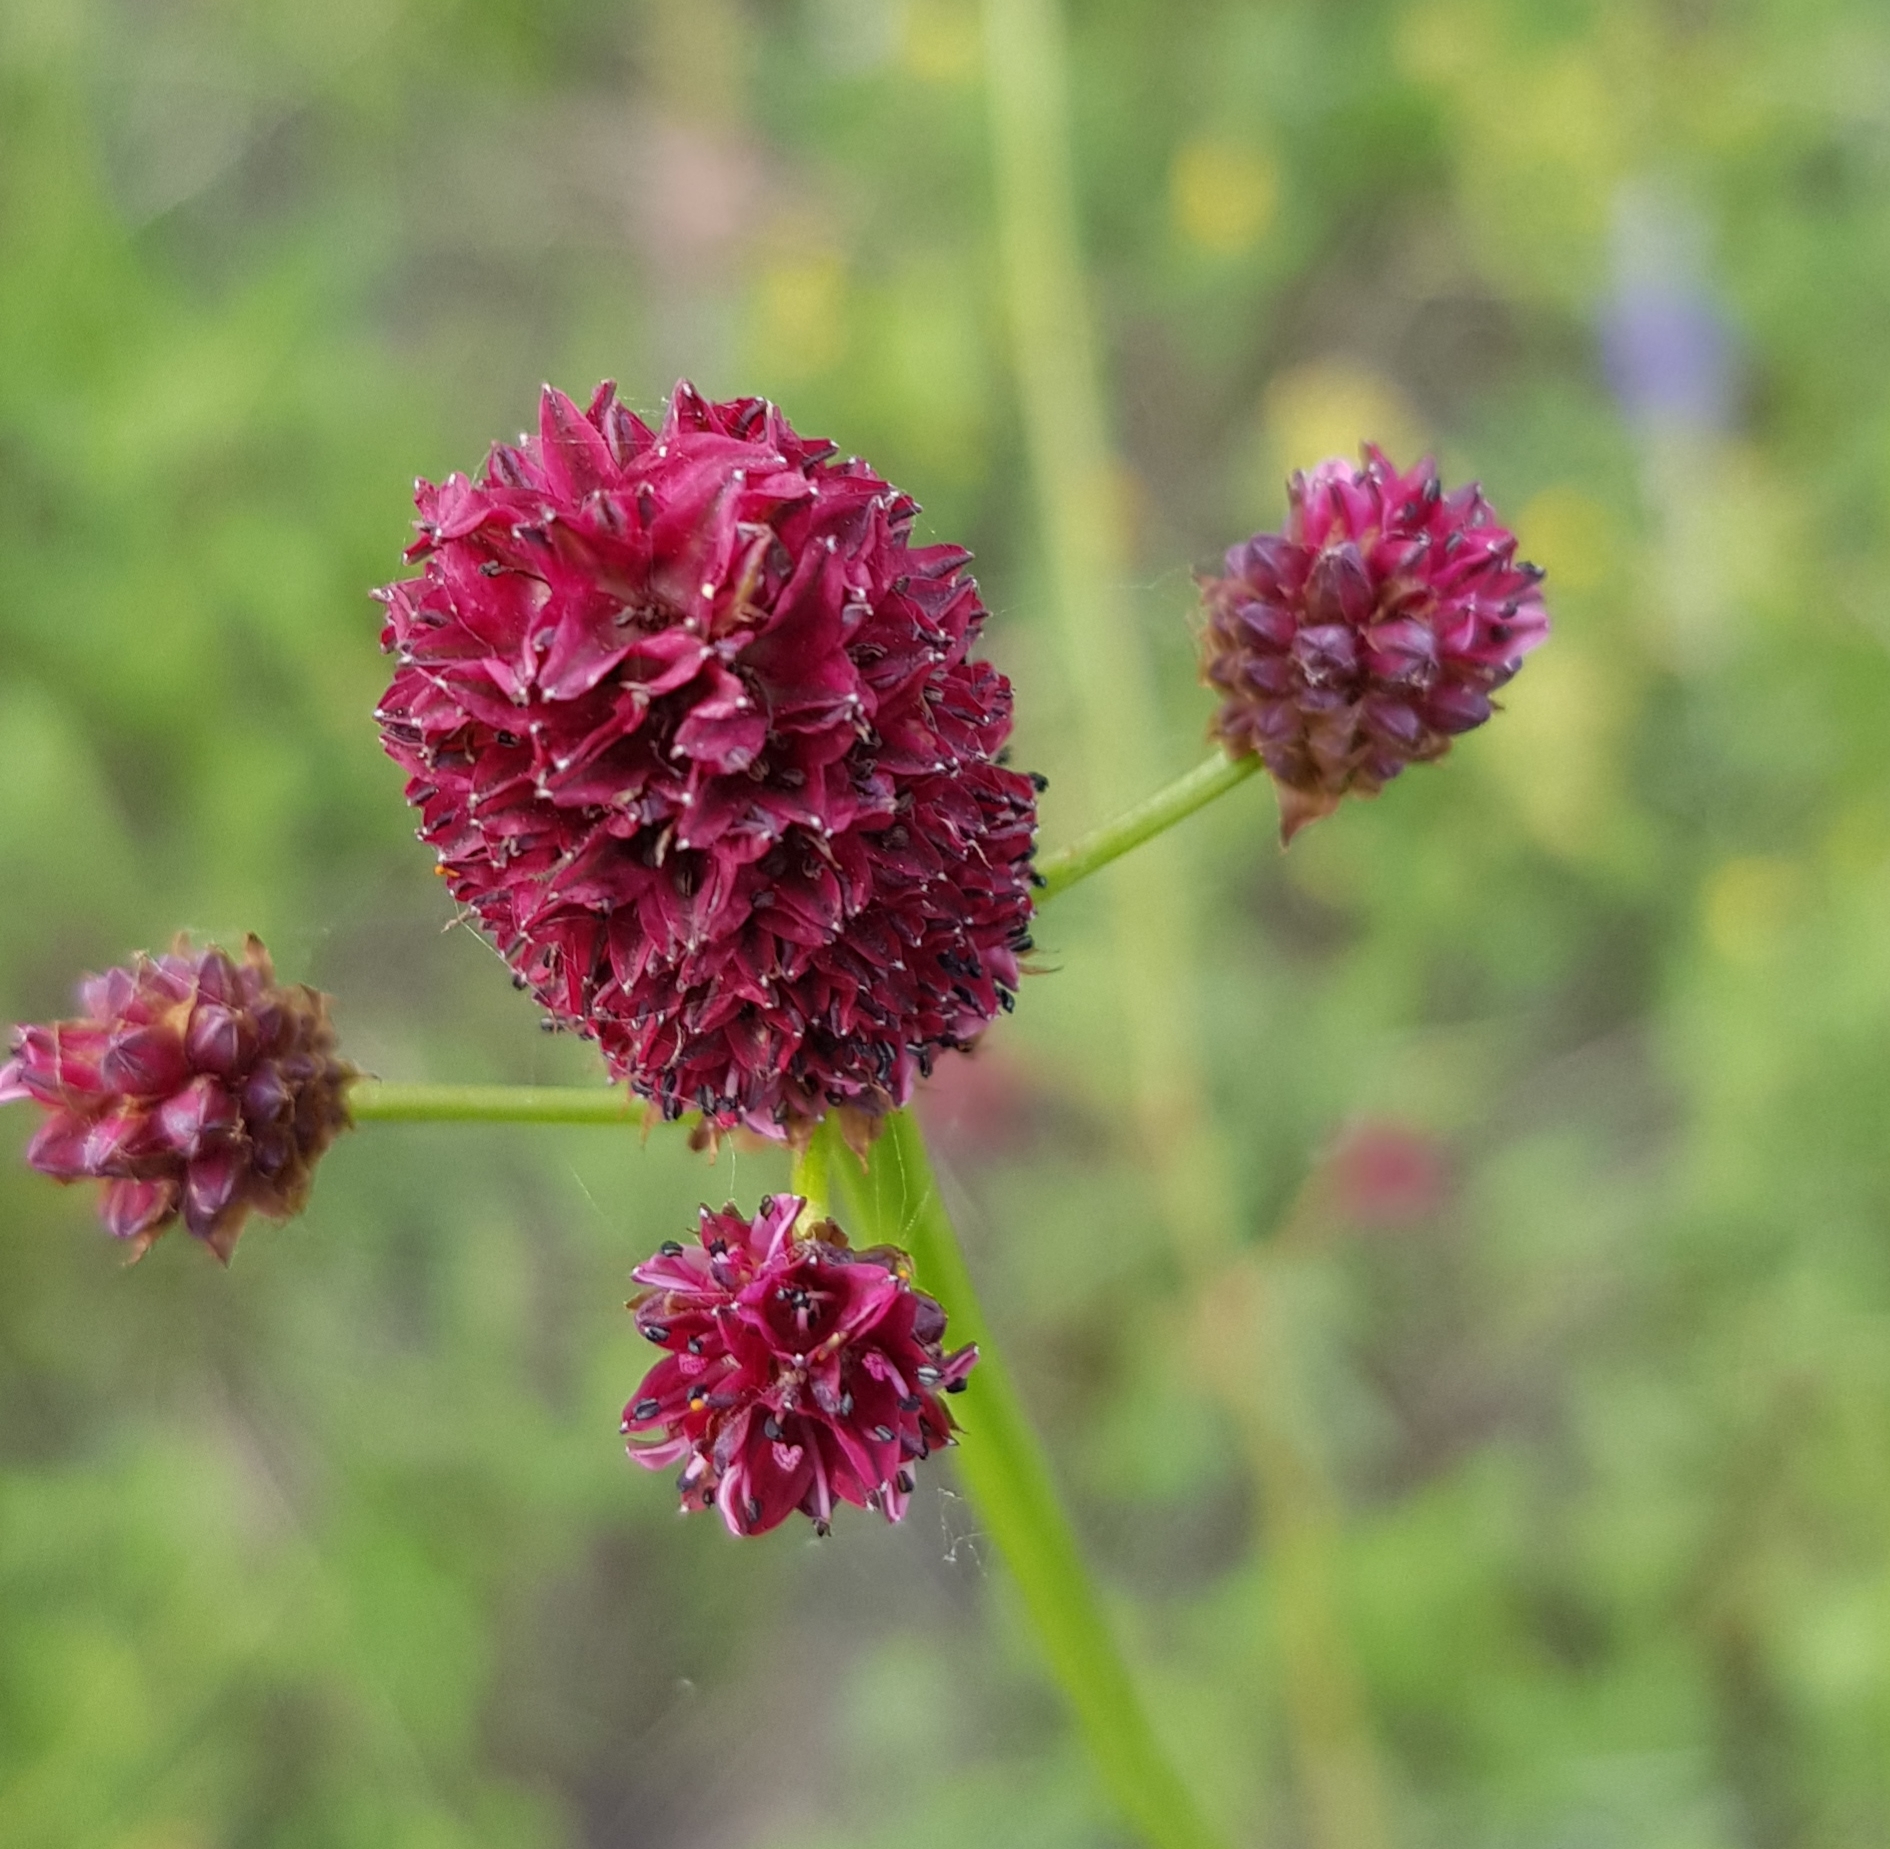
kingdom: Plantae
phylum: Tracheophyta
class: Magnoliopsida
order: Rosales
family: Rosaceae
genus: Sanguisorba
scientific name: Sanguisorba officinalis
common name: Great burnet
